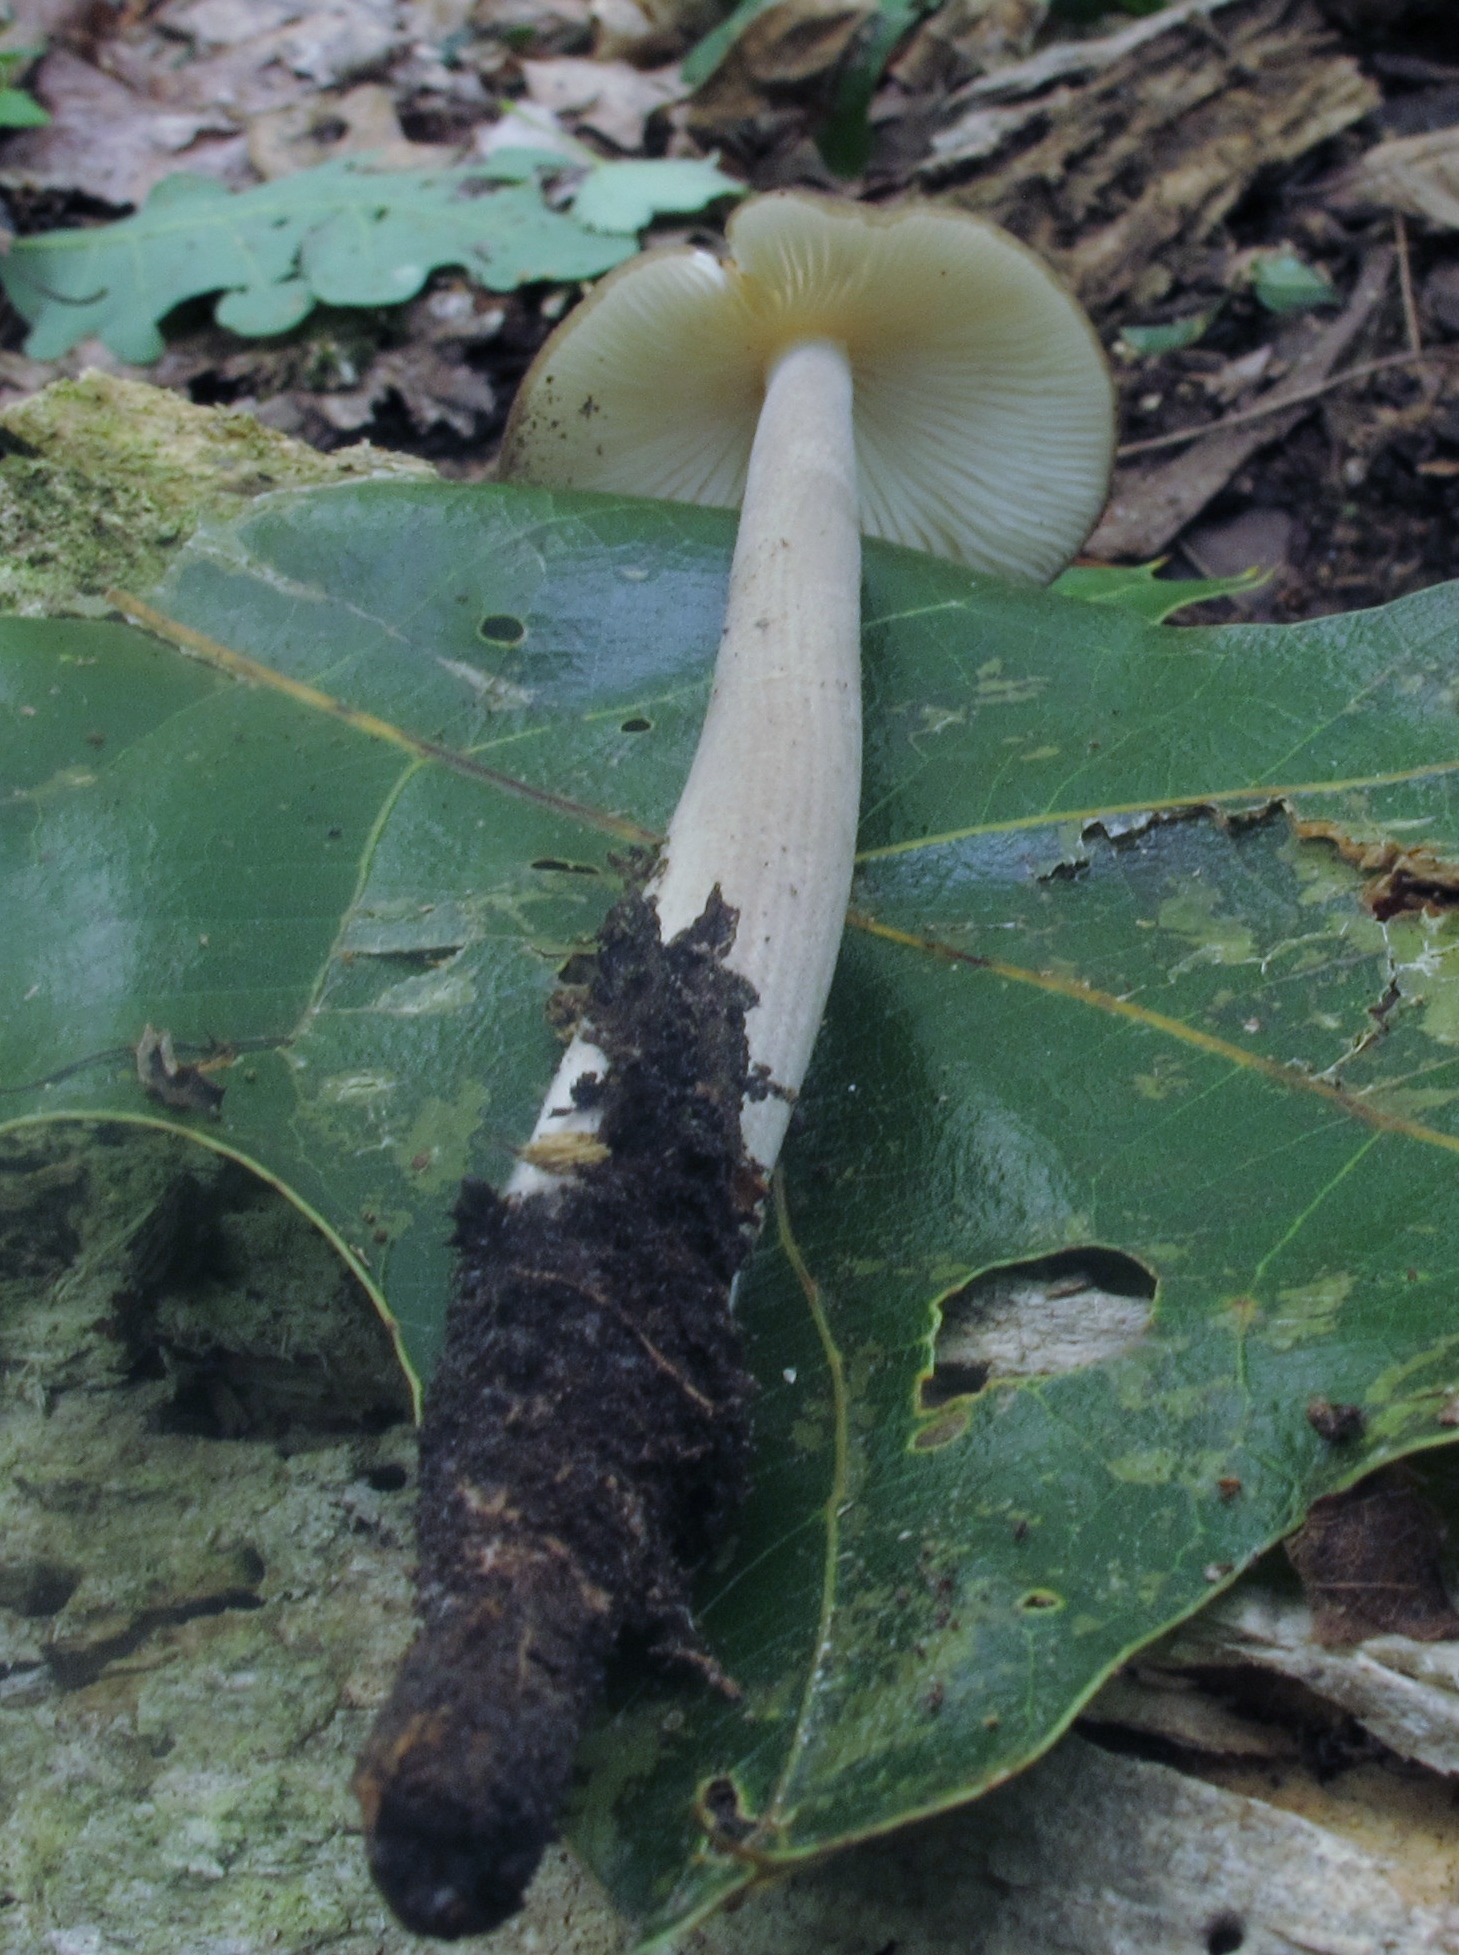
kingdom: Fungi
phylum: Basidiomycota
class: Agaricomycetes
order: Agaricales
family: Physalacriaceae
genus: Hymenopellis
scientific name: Hymenopellis furfuracea
